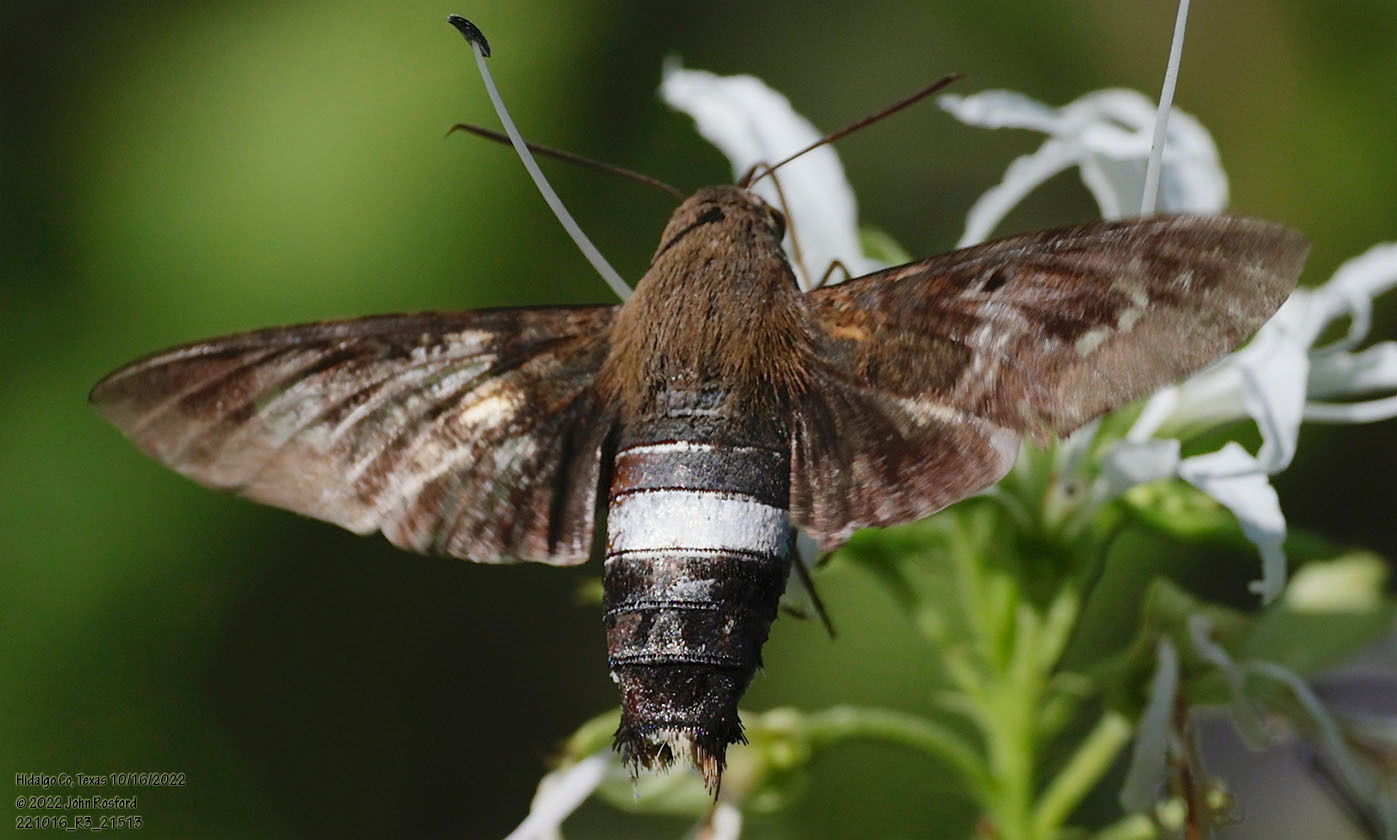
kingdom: Animalia
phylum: Arthropoda
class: Insecta
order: Lepidoptera
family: Sphingidae
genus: Aellopos
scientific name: Aellopos clavipes
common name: Clavipes sphinx
